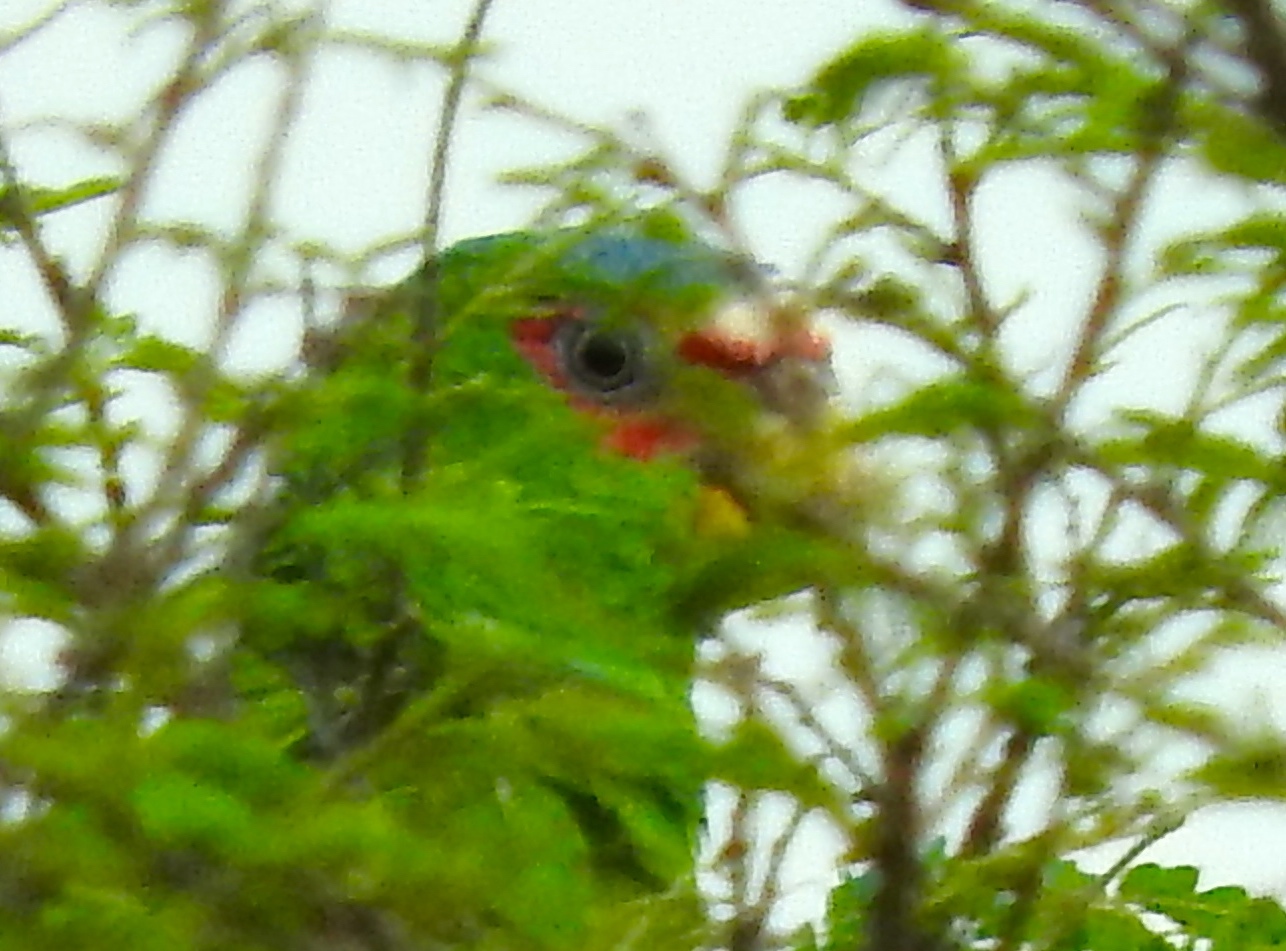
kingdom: Animalia
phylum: Chordata
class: Aves
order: Psittaciformes
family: Psittacidae
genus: Amazona
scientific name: Amazona albifrons
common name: White-fronted amazon
